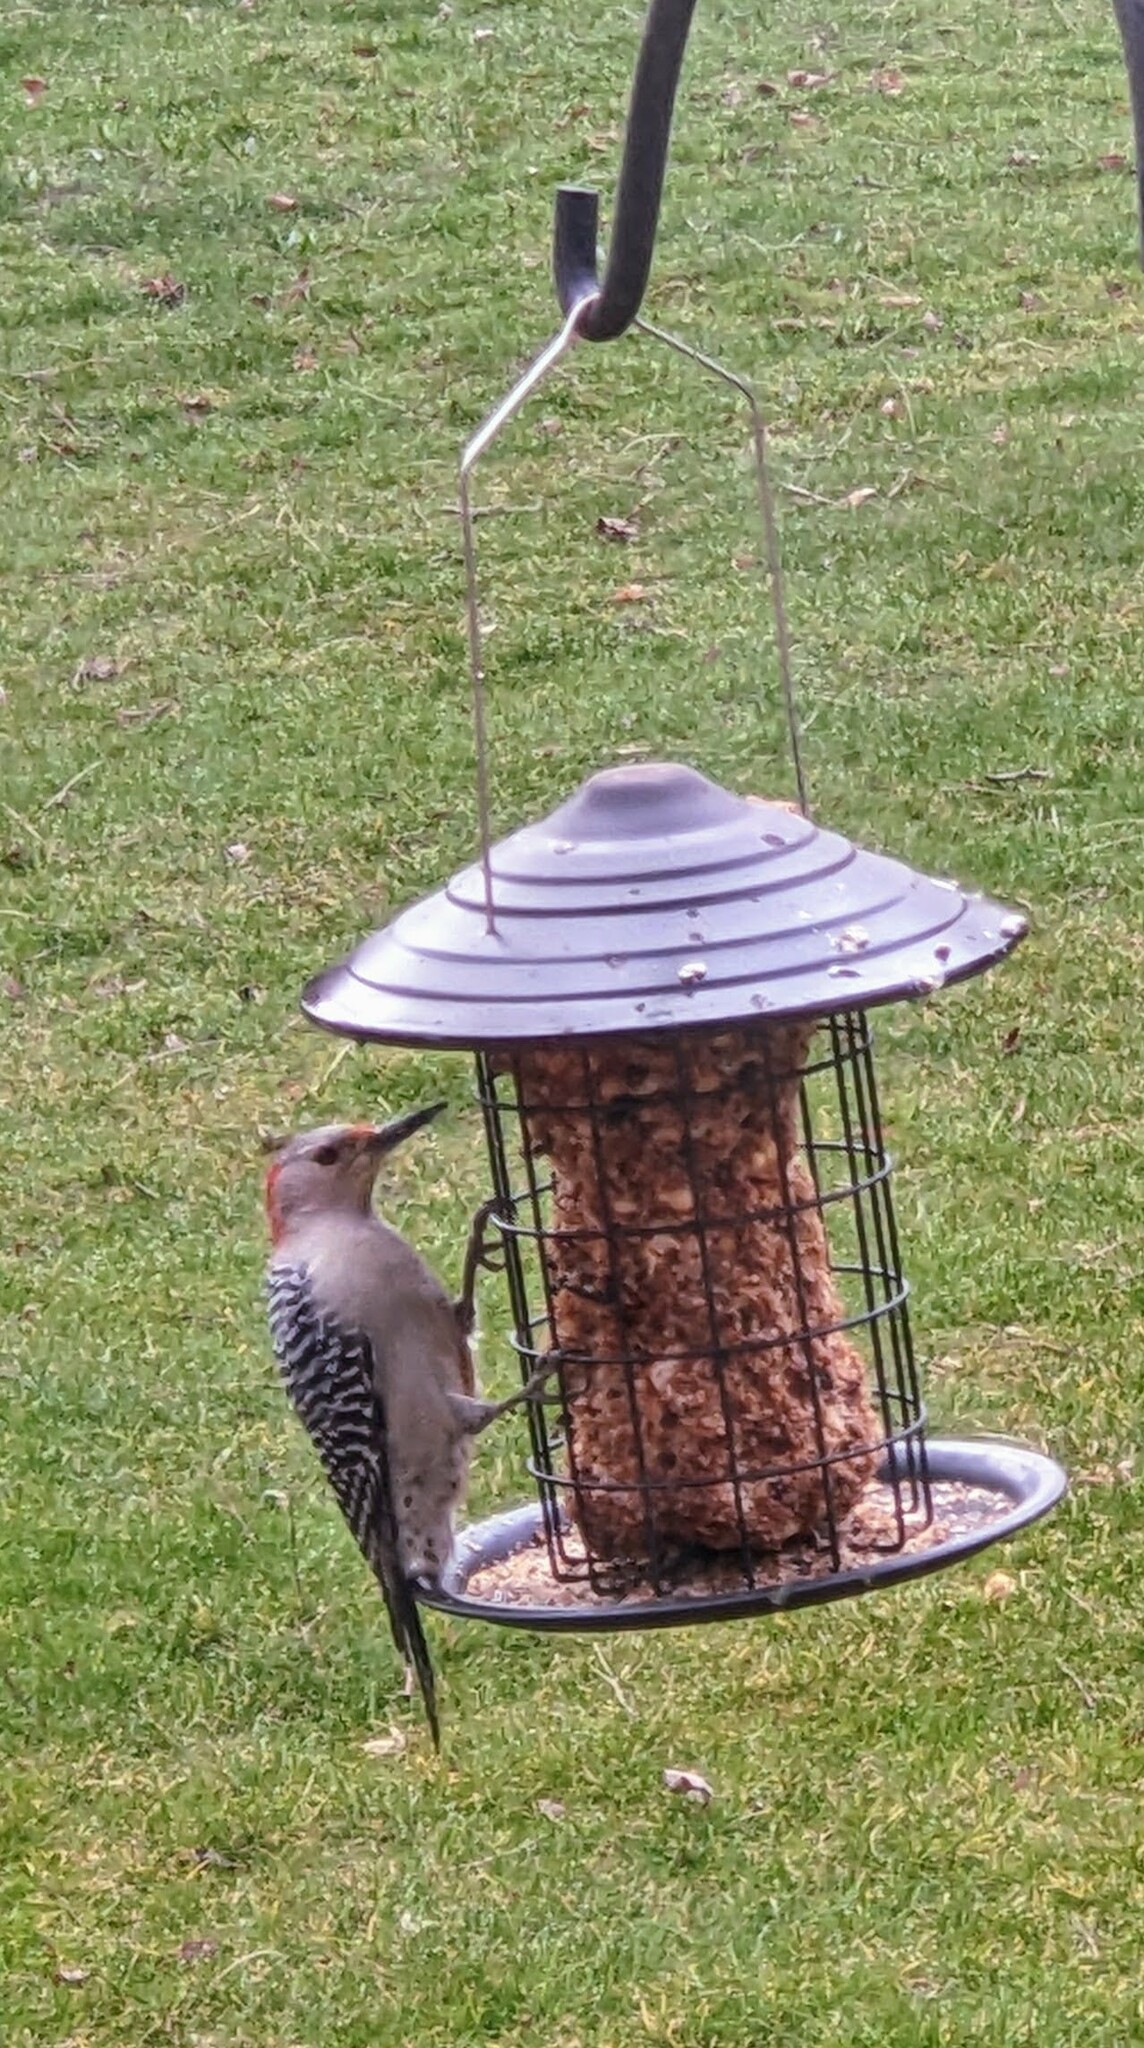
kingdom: Animalia
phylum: Chordata
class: Aves
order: Piciformes
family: Picidae
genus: Melanerpes
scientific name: Melanerpes carolinus
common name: Red-bellied woodpecker
